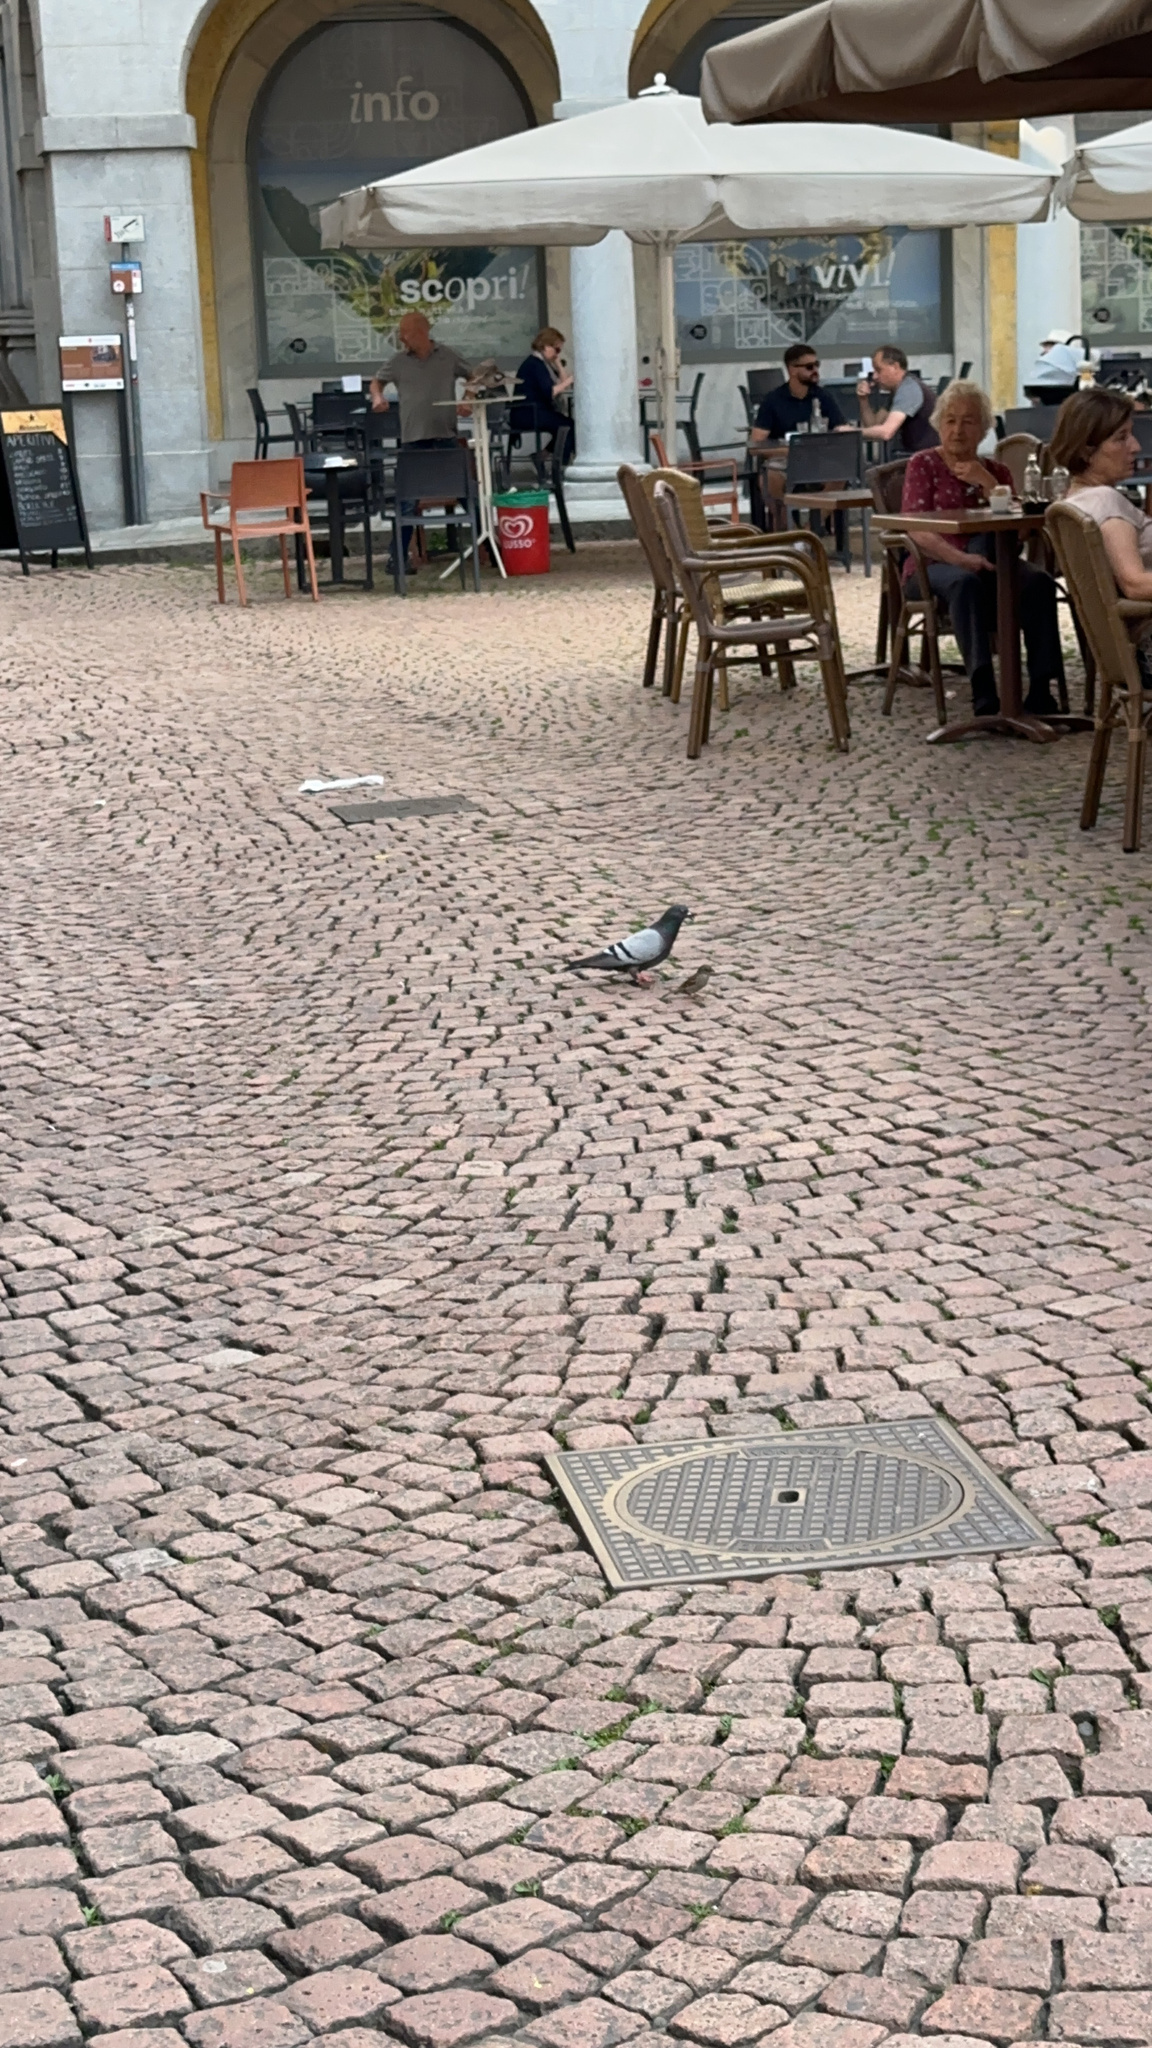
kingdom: Animalia
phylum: Chordata
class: Aves
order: Columbiformes
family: Columbidae
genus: Columba
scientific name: Columba livia
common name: Rock pigeon
